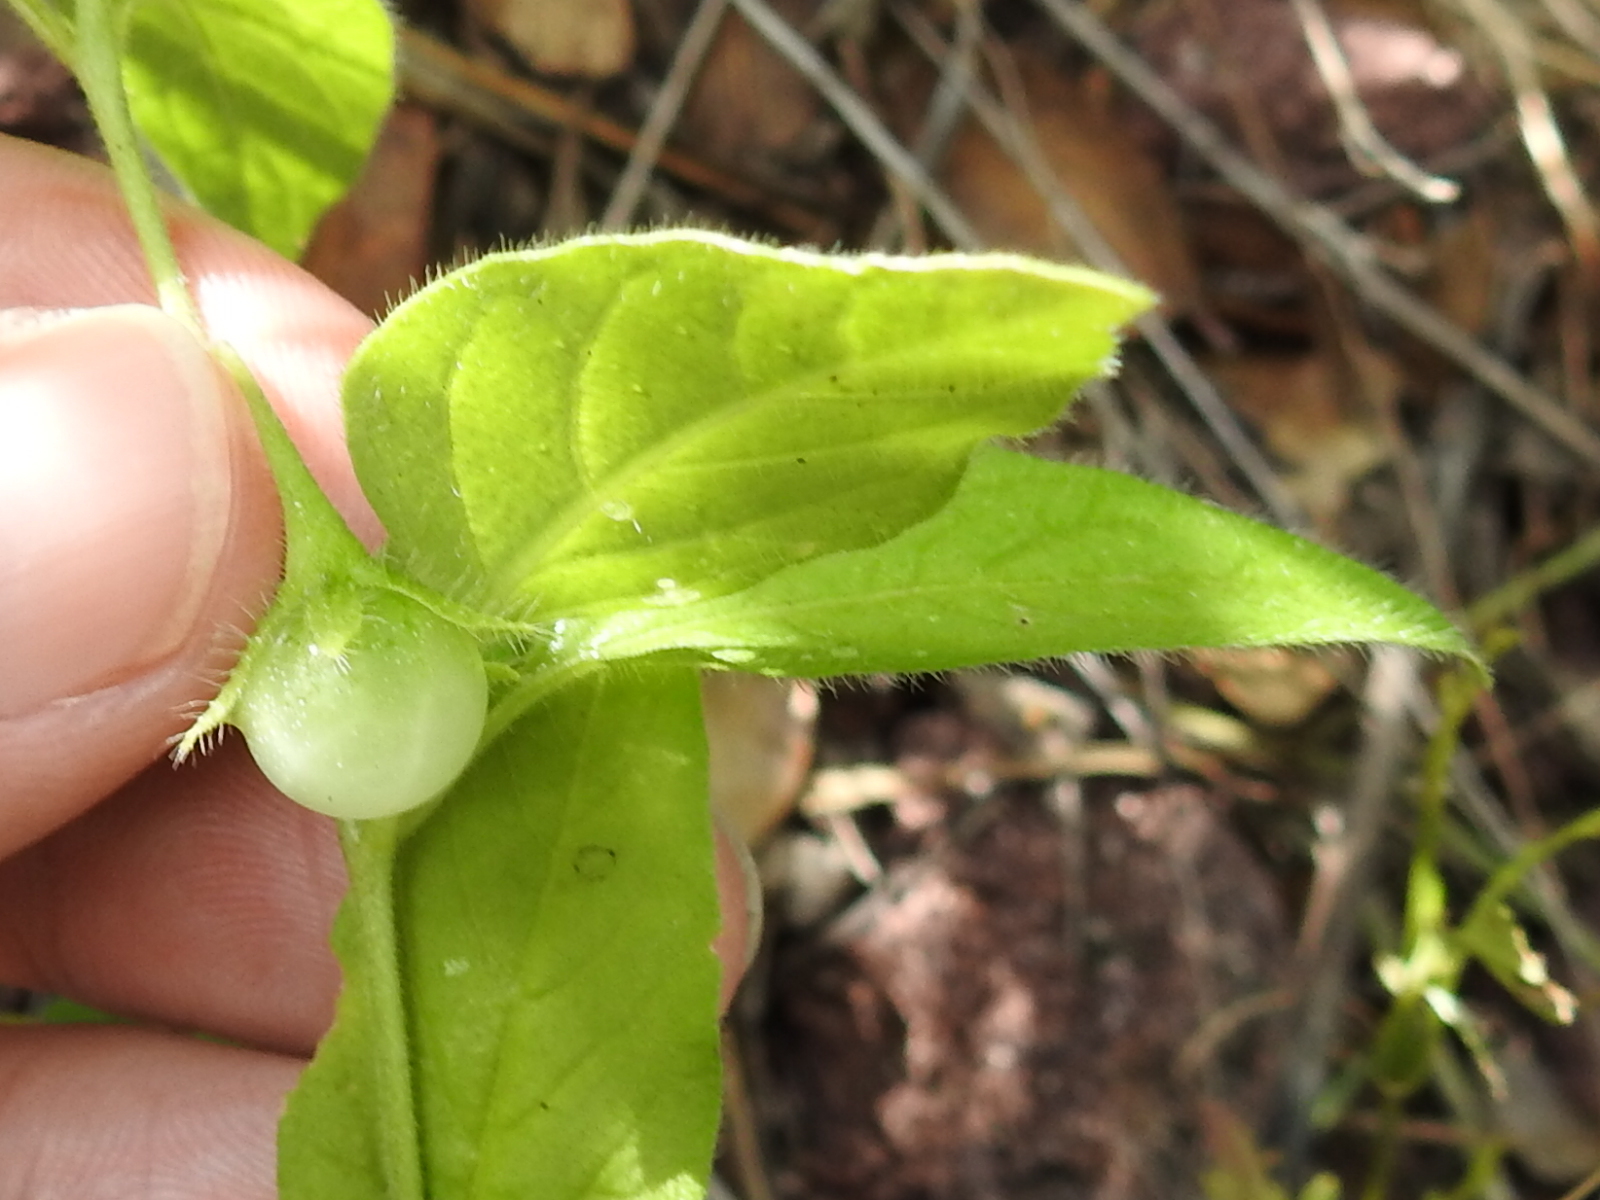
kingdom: Plantae
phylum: Tracheophyta
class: Magnoliopsida
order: Solanales
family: Solanaceae
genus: Solanum
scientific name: Solanum deflexum
